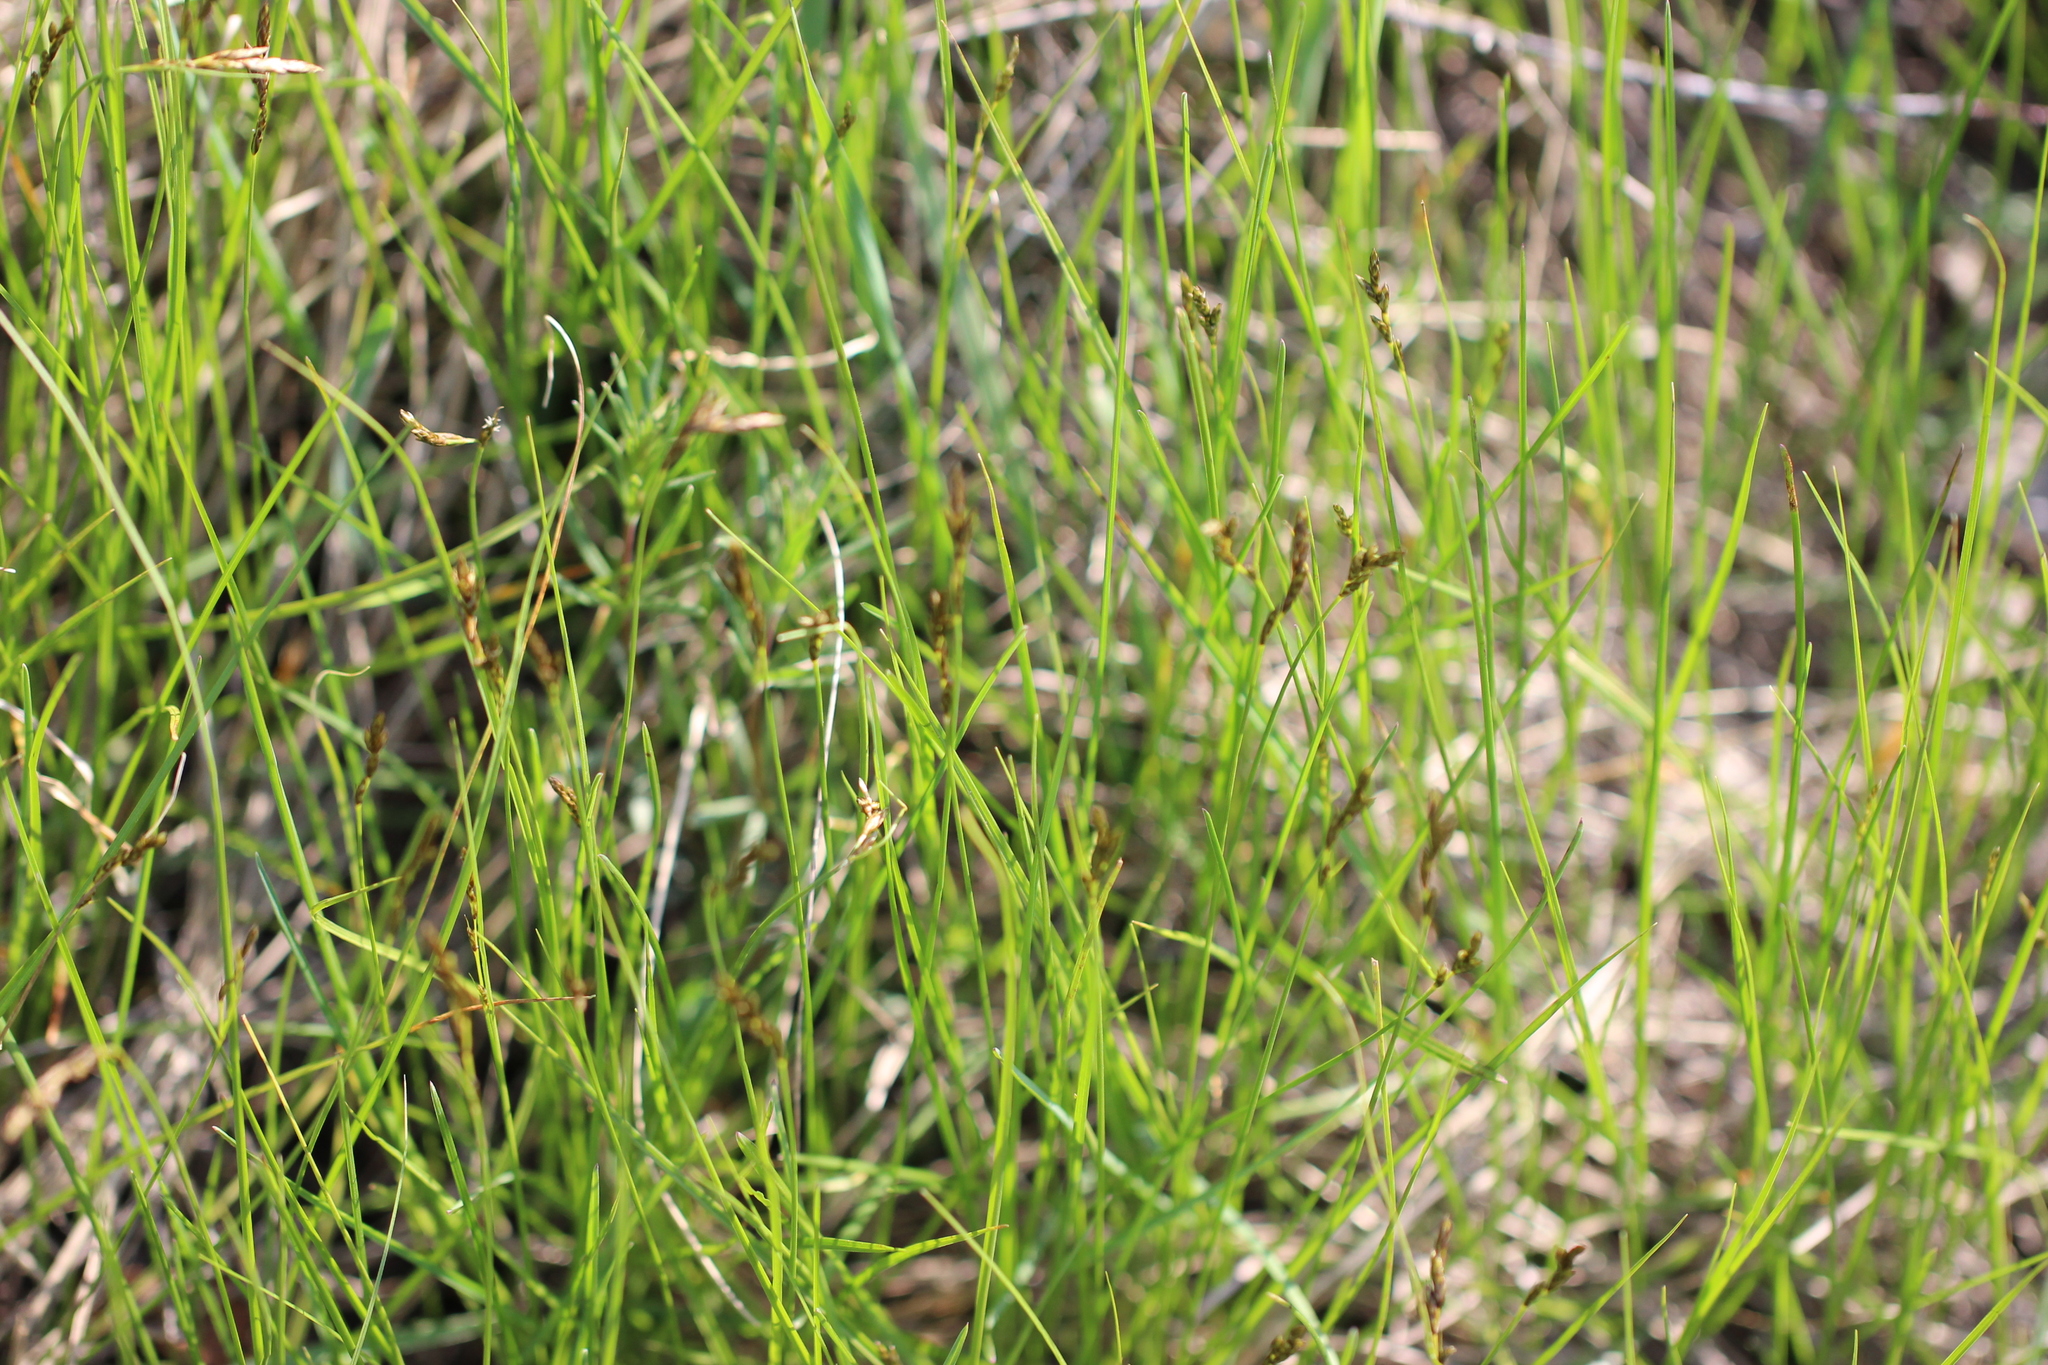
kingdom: Plantae
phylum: Tracheophyta
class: Liliopsida
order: Poales
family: Cyperaceae
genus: Carex
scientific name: Carex praecox
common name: Early sedge
